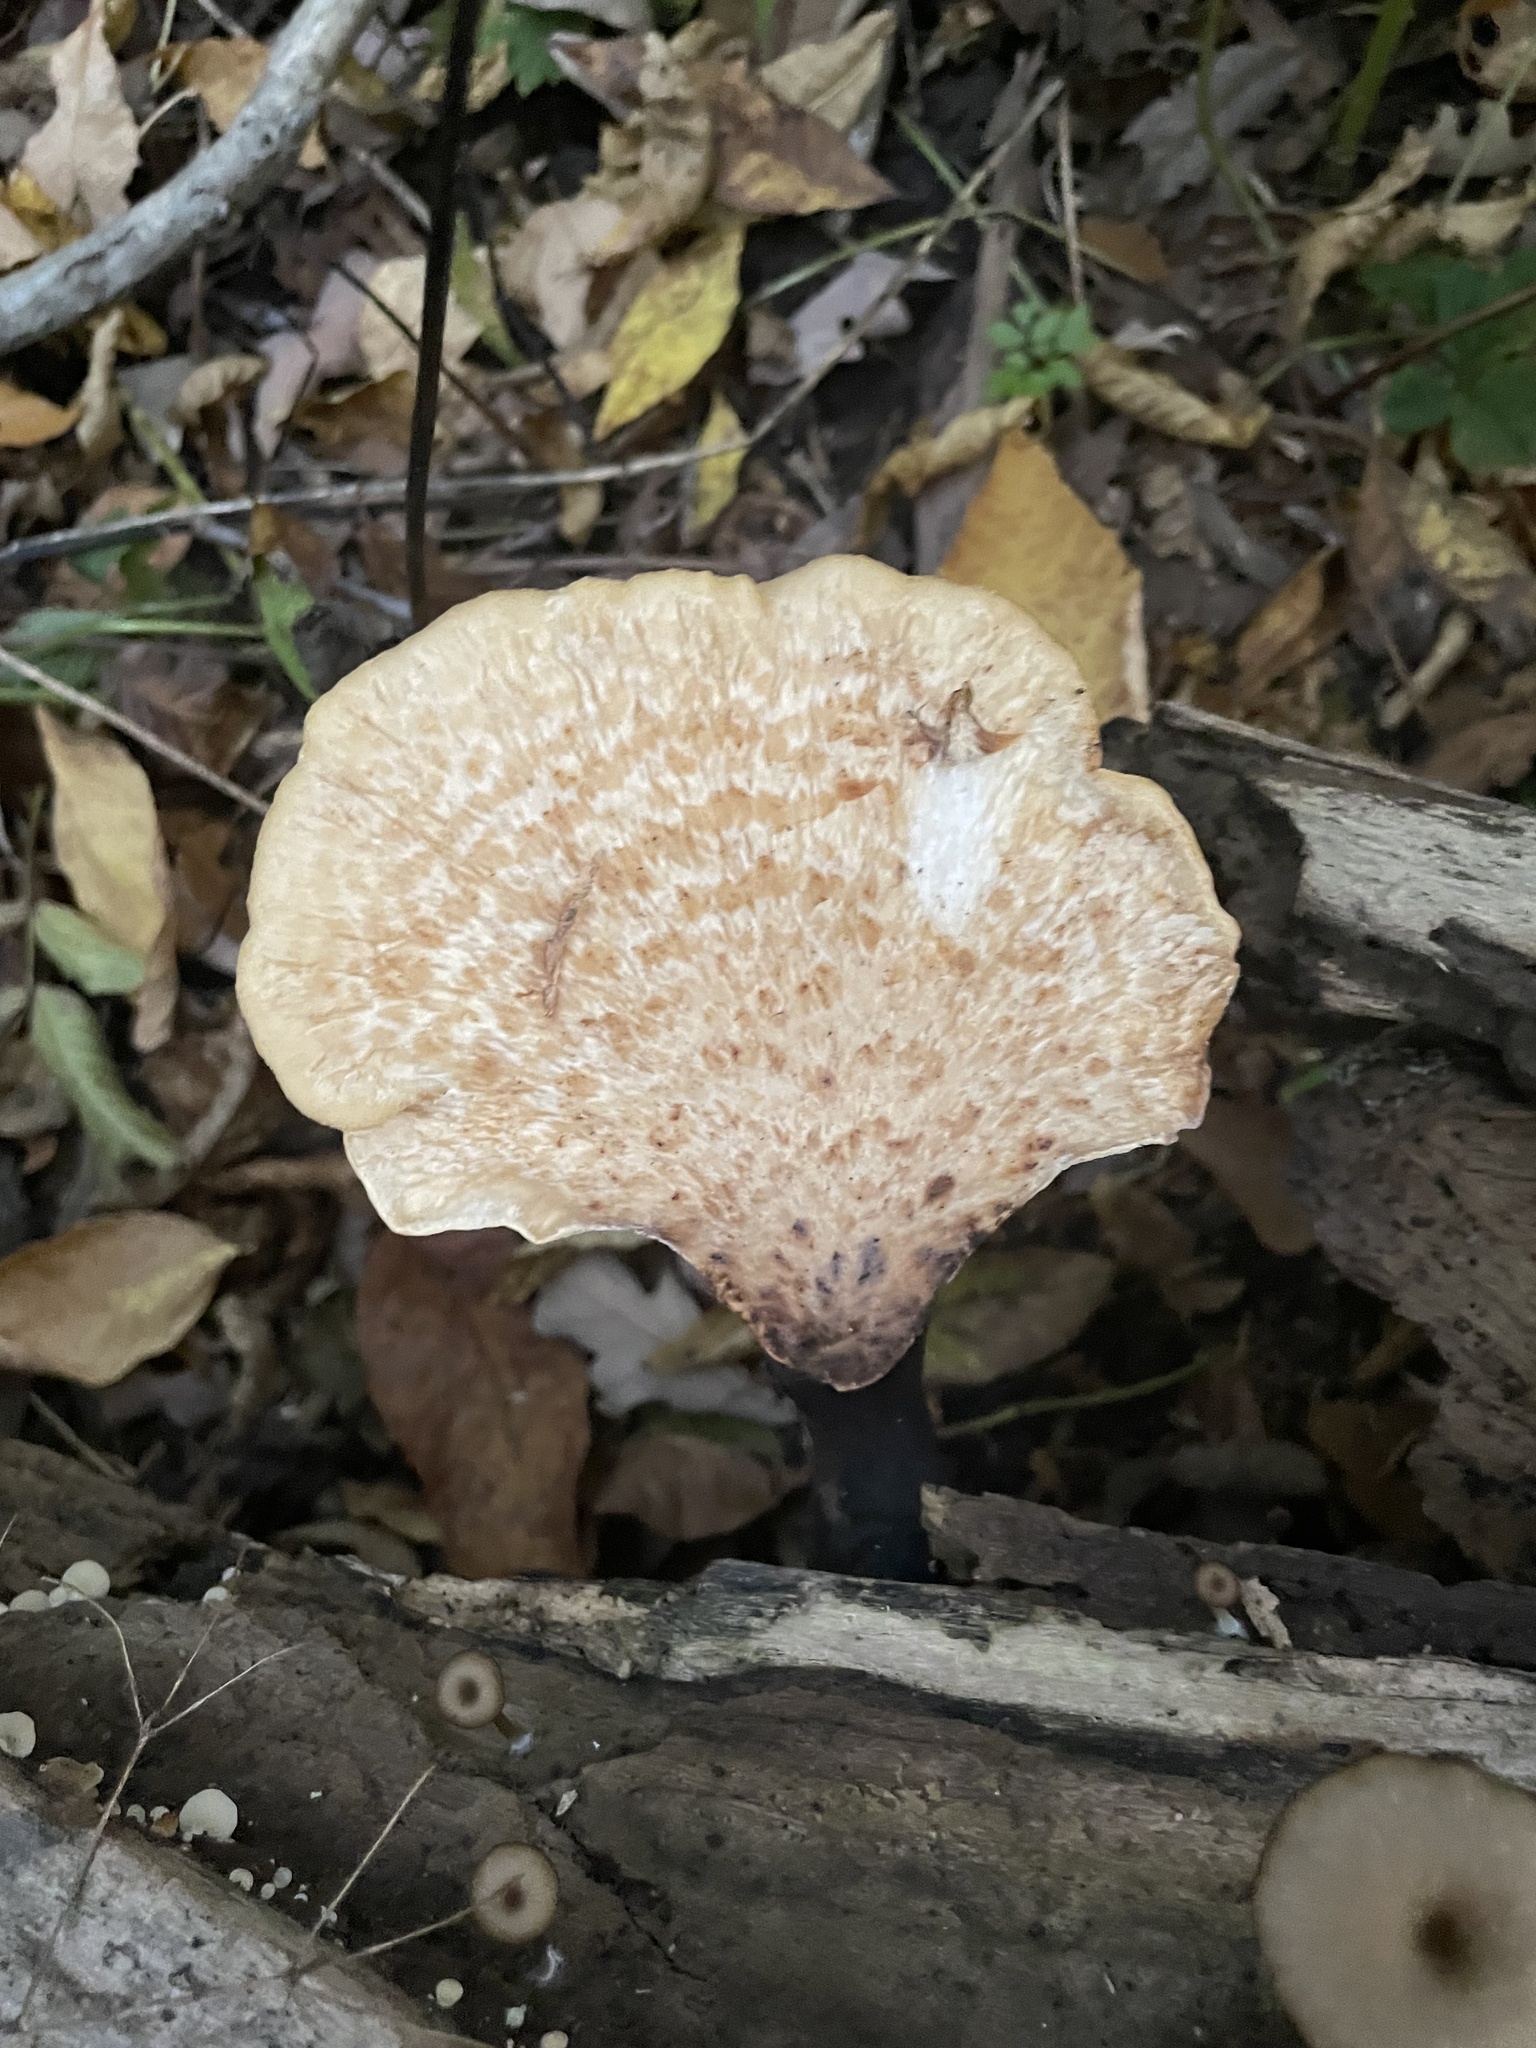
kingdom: Fungi
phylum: Basidiomycota
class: Agaricomycetes
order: Polyporales
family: Polyporaceae
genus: Cerioporus
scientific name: Cerioporus squamosus
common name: Dryad's saddle
